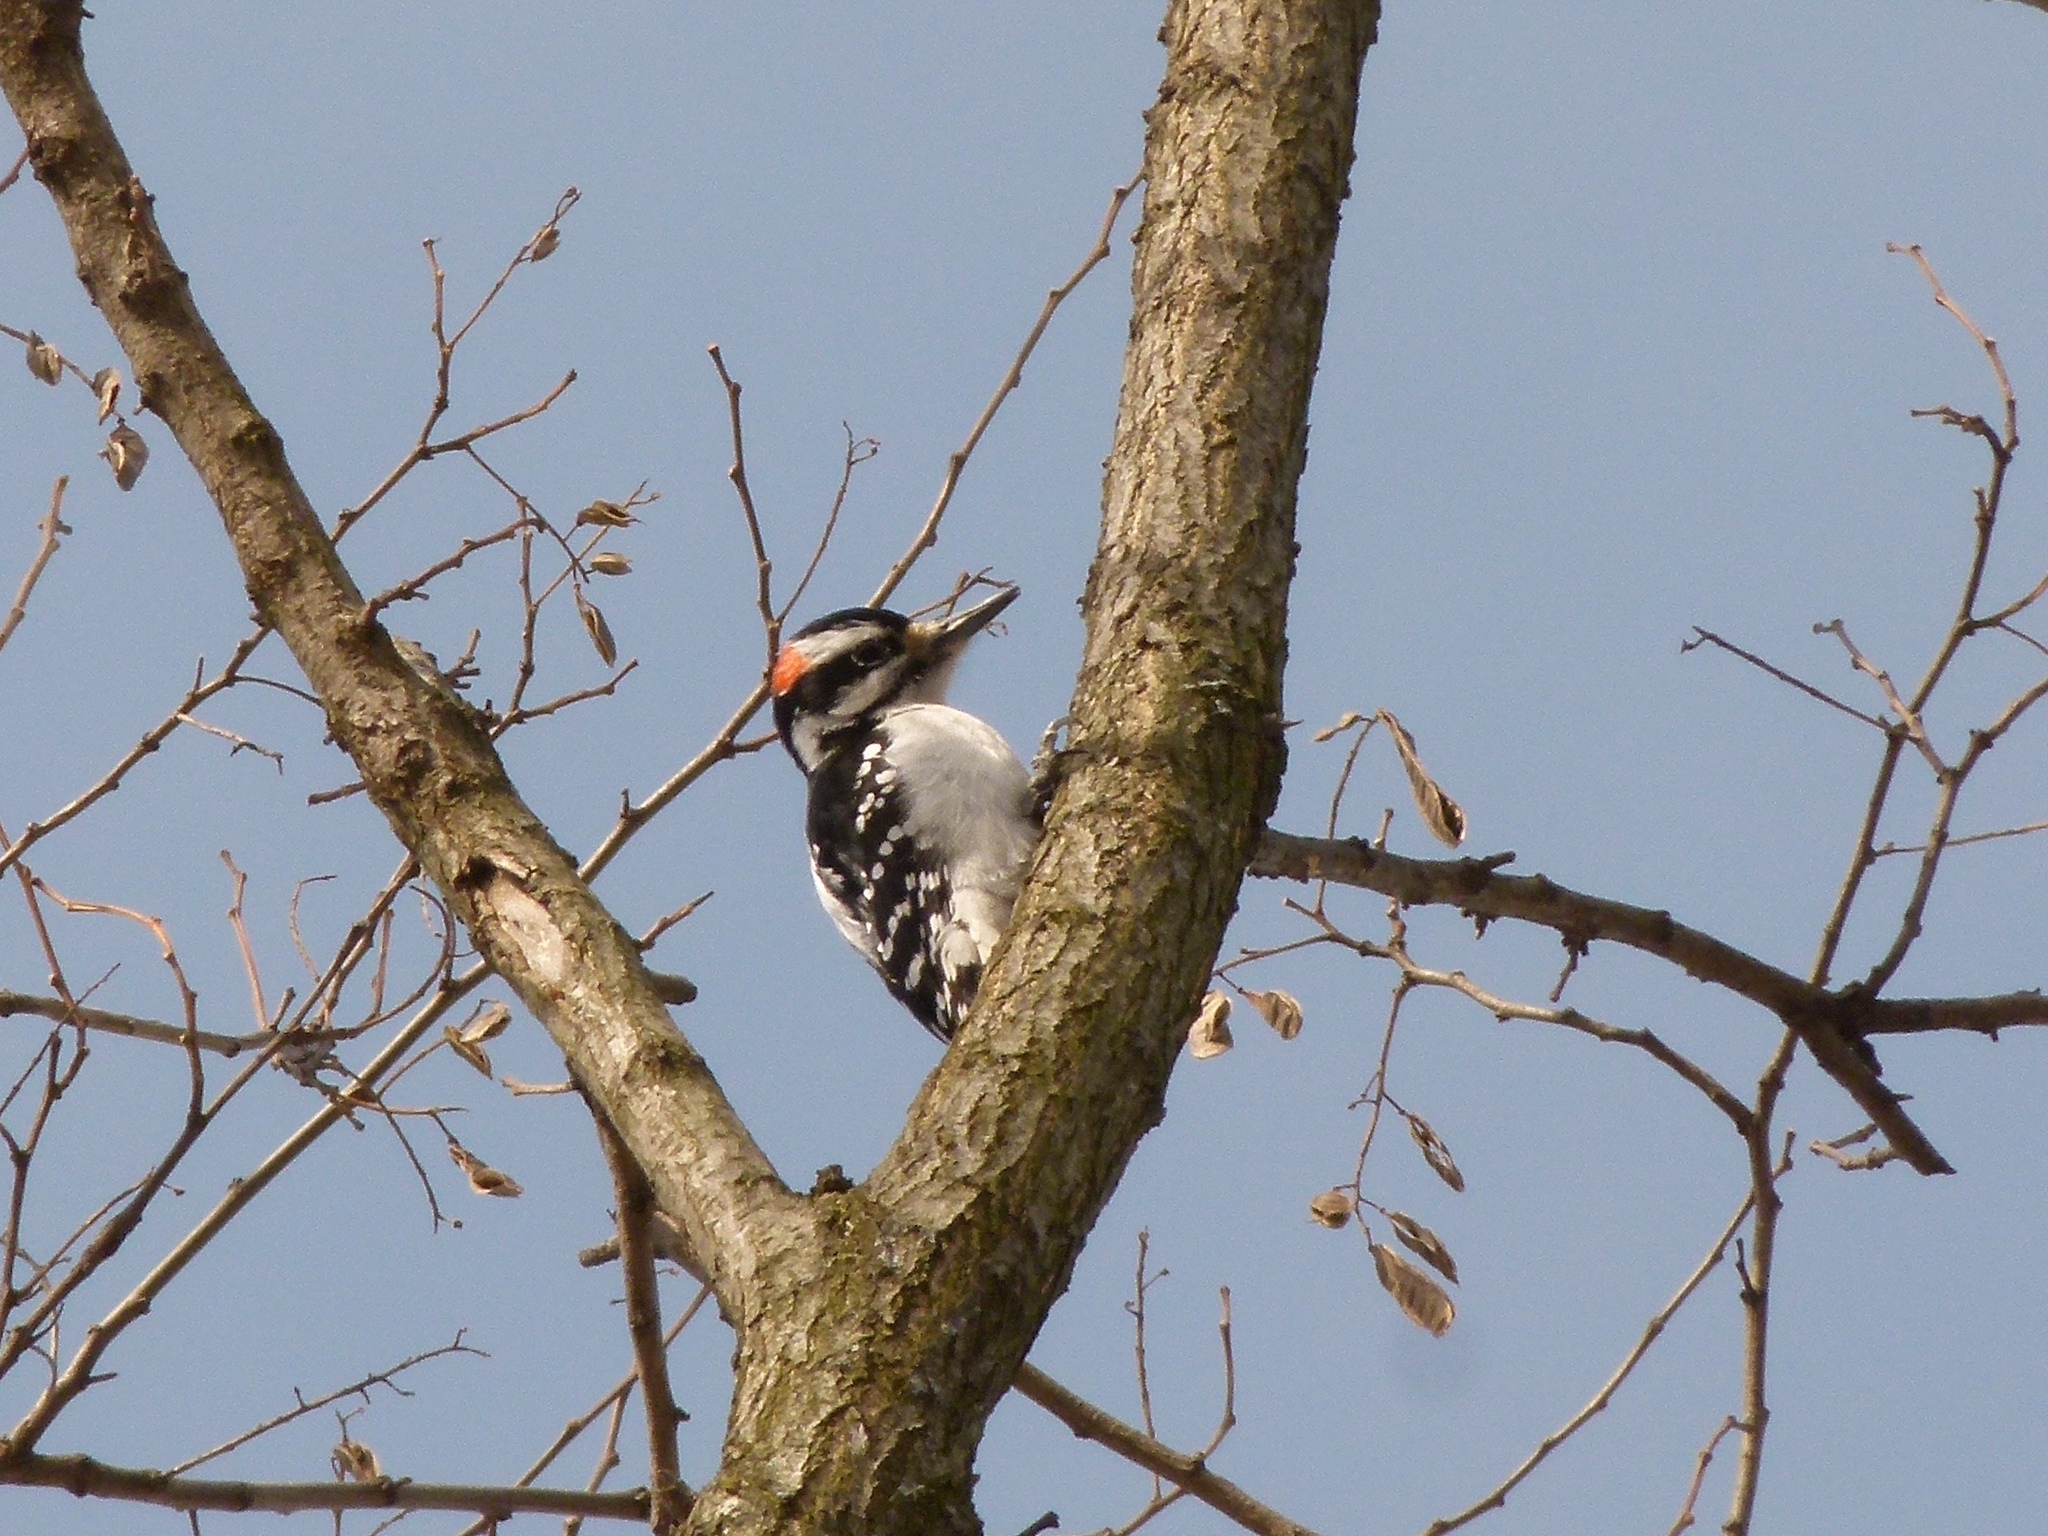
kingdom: Animalia
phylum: Chordata
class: Aves
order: Piciformes
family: Picidae
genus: Leuconotopicus
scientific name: Leuconotopicus villosus
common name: Hairy woodpecker
